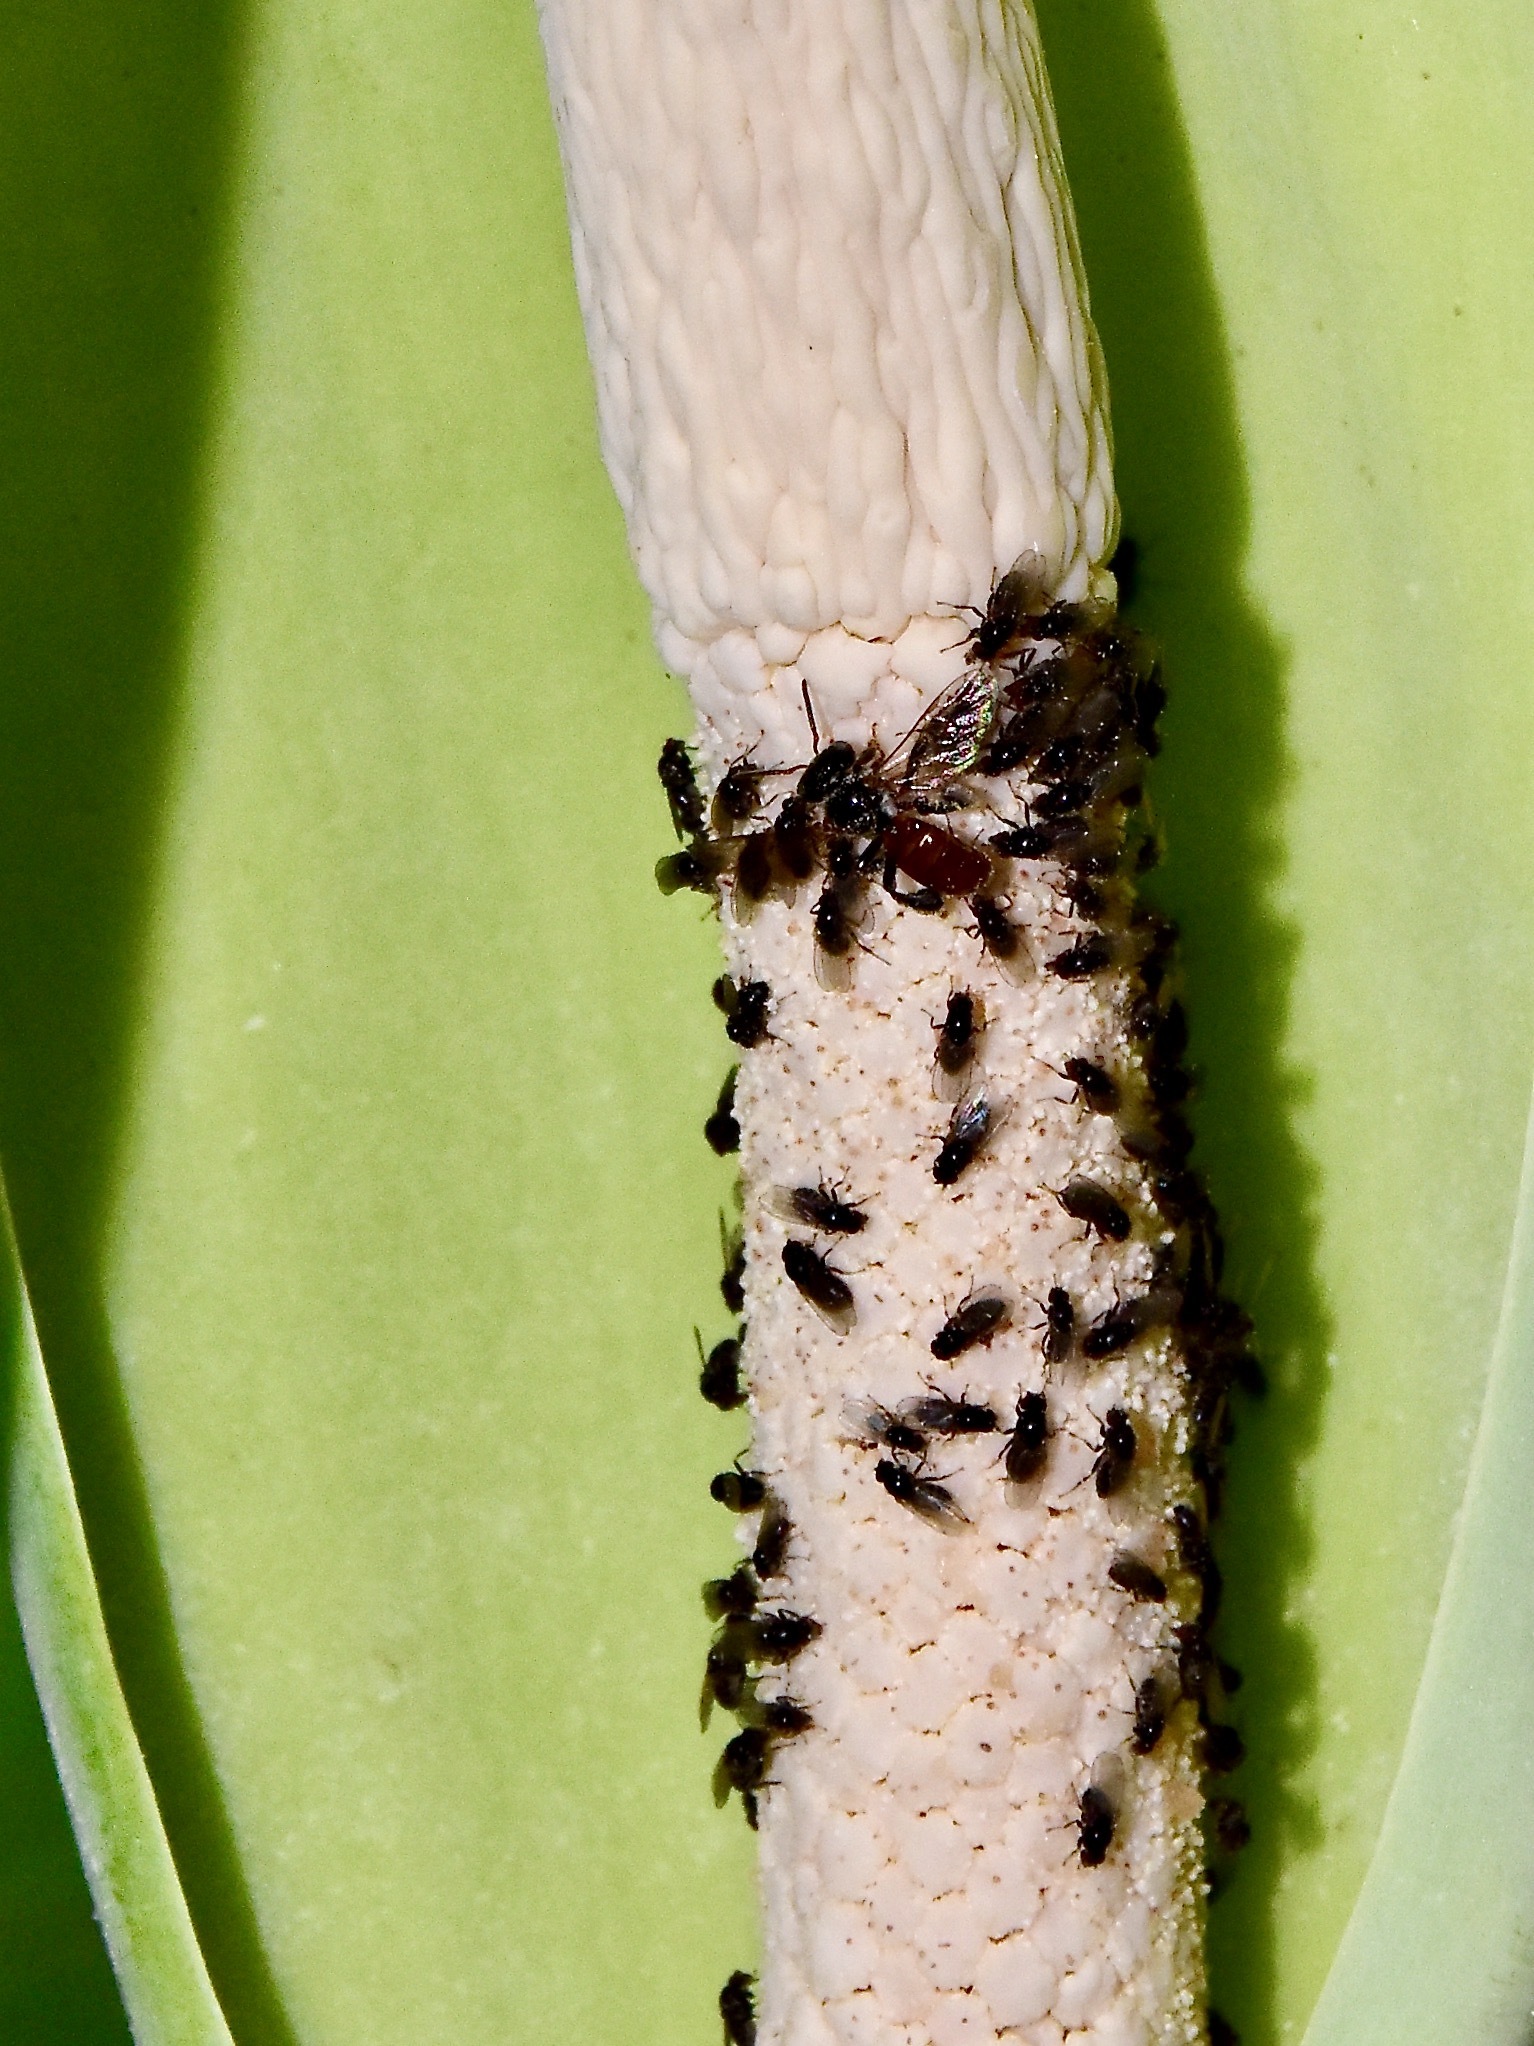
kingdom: Animalia
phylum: Arthropoda
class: Insecta
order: Hymenoptera
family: Apidae
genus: Tetragonula
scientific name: Tetragonula valdezi
